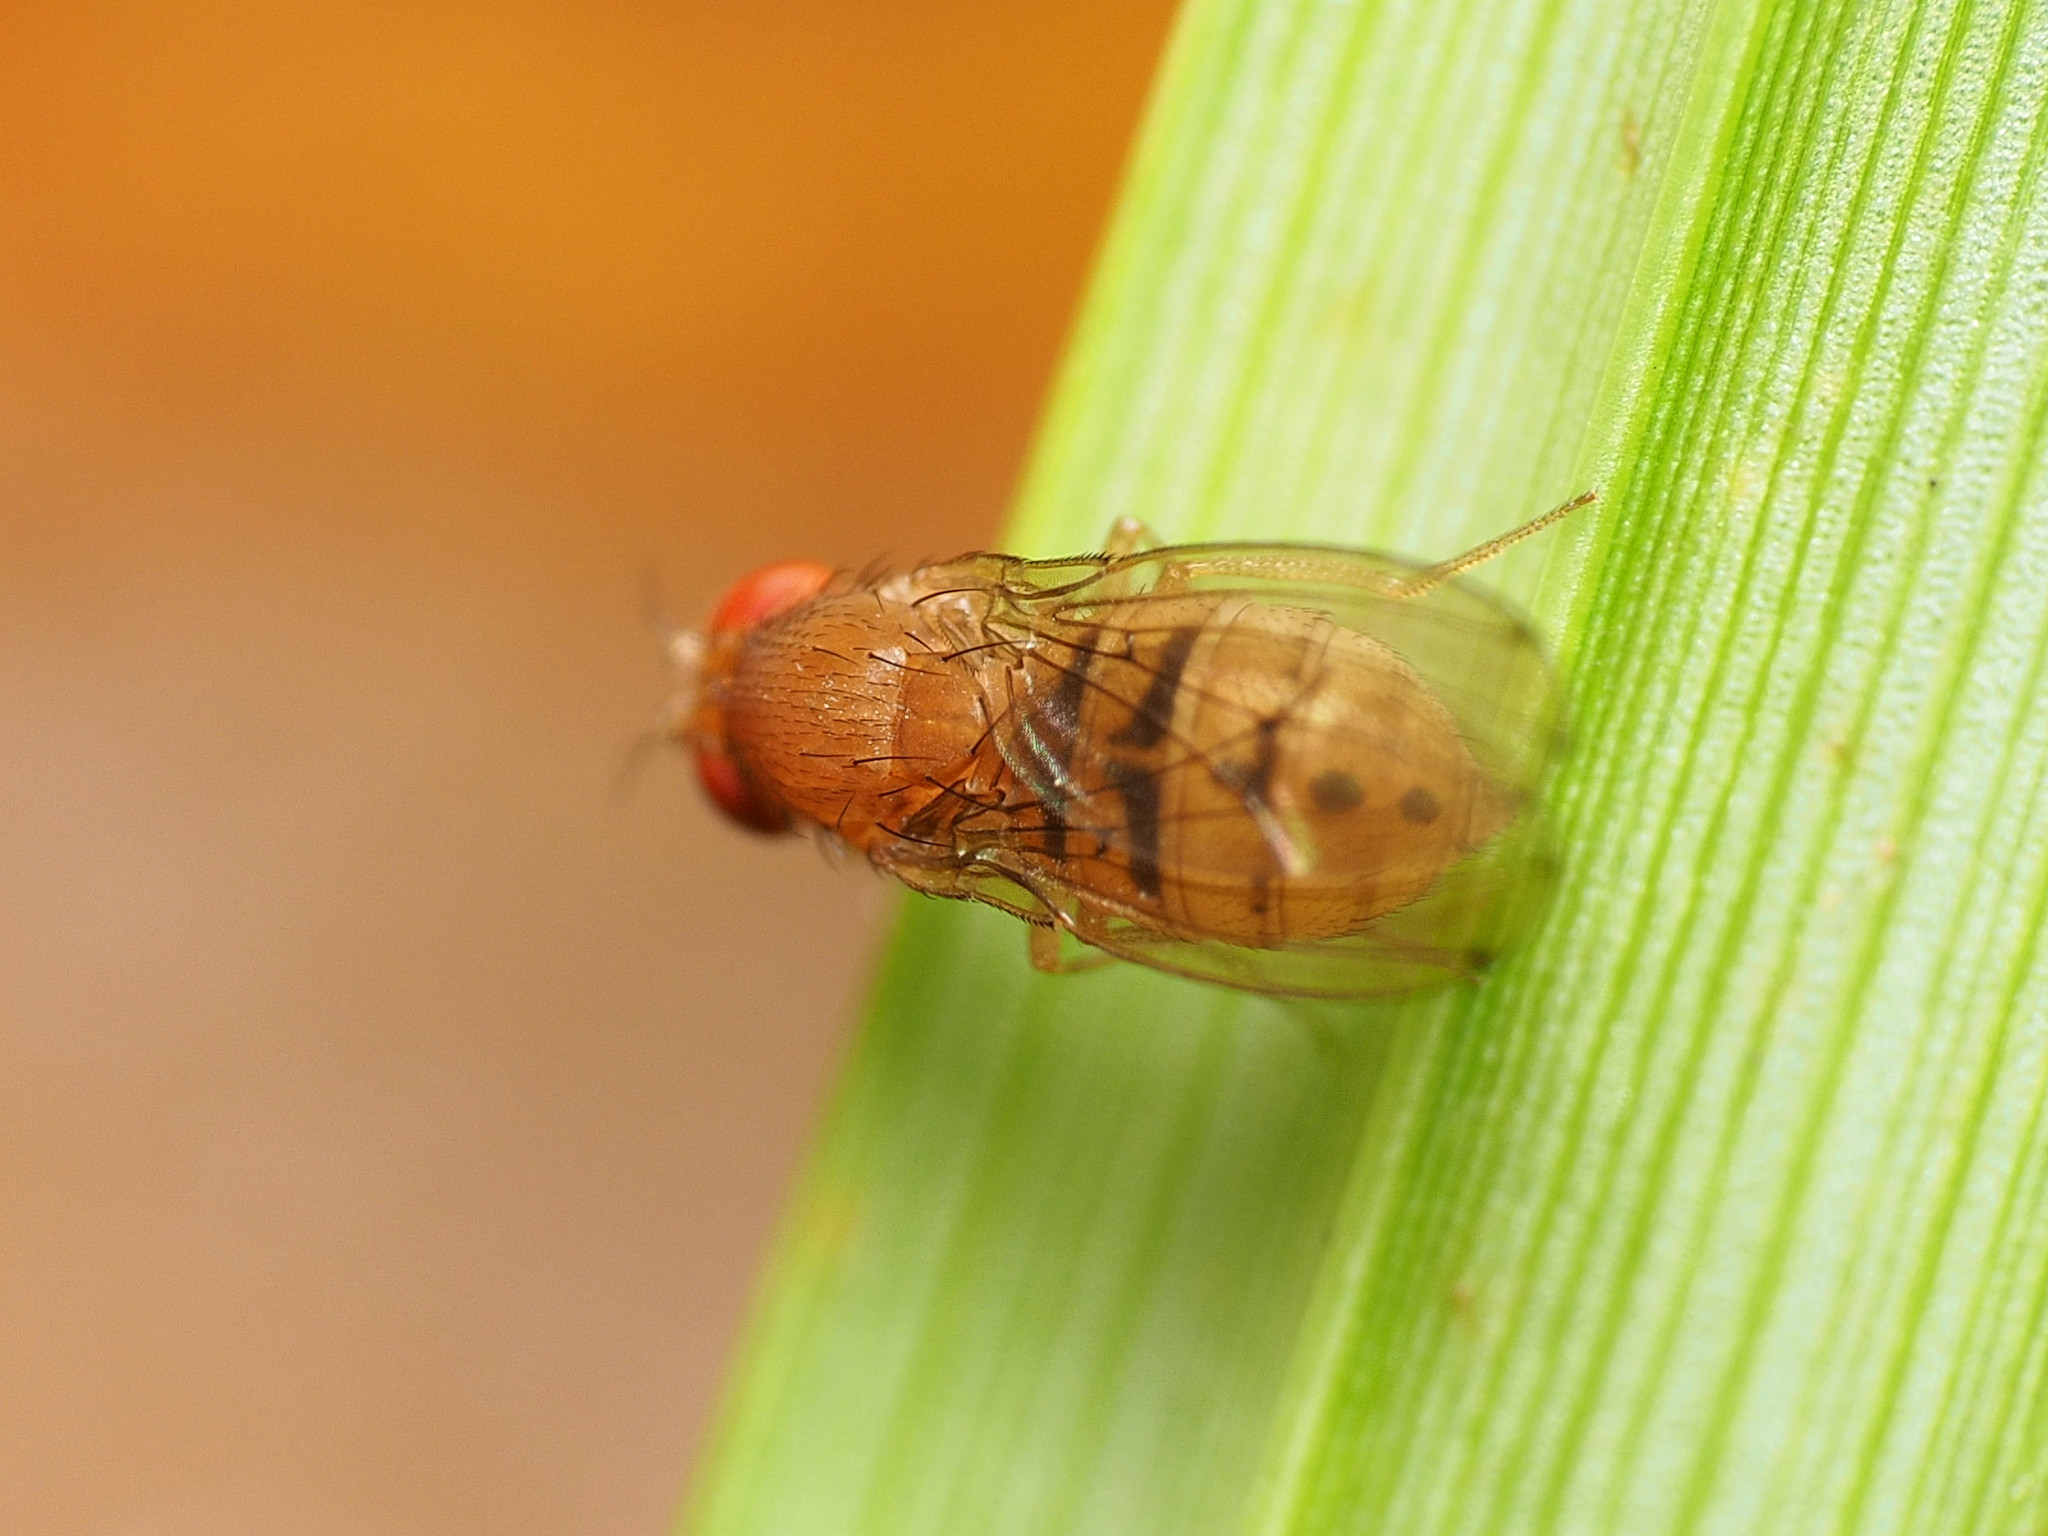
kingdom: Animalia
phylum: Arthropoda
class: Insecta
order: Diptera
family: Drosophilidae
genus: Drosophila
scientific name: Drosophila tripunctata
